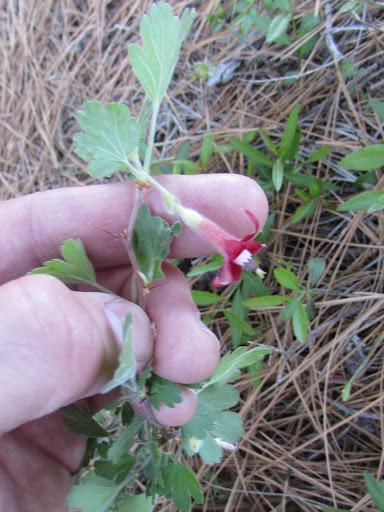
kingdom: Plantae
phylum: Tracheophyta
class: Magnoliopsida
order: Saxifragales
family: Grossulariaceae
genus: Ribes
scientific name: Ribes roezlii
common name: Sierra gooseberry
